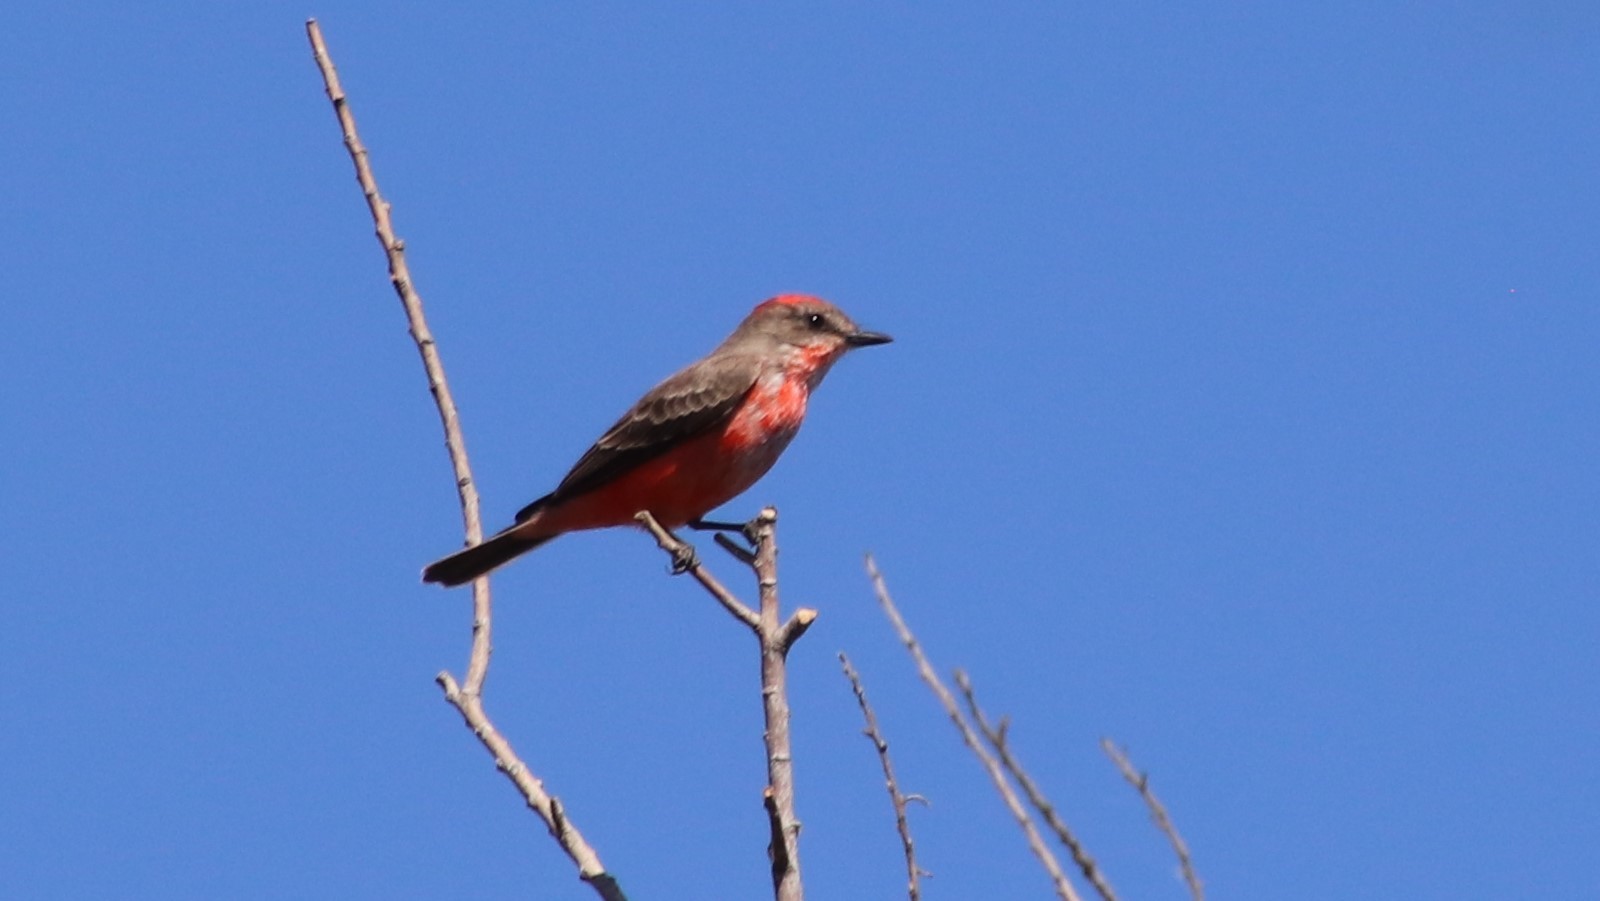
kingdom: Animalia
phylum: Chordata
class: Aves
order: Passeriformes
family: Tyrannidae
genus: Pyrocephalus
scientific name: Pyrocephalus rubinus
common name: Vermilion flycatcher
